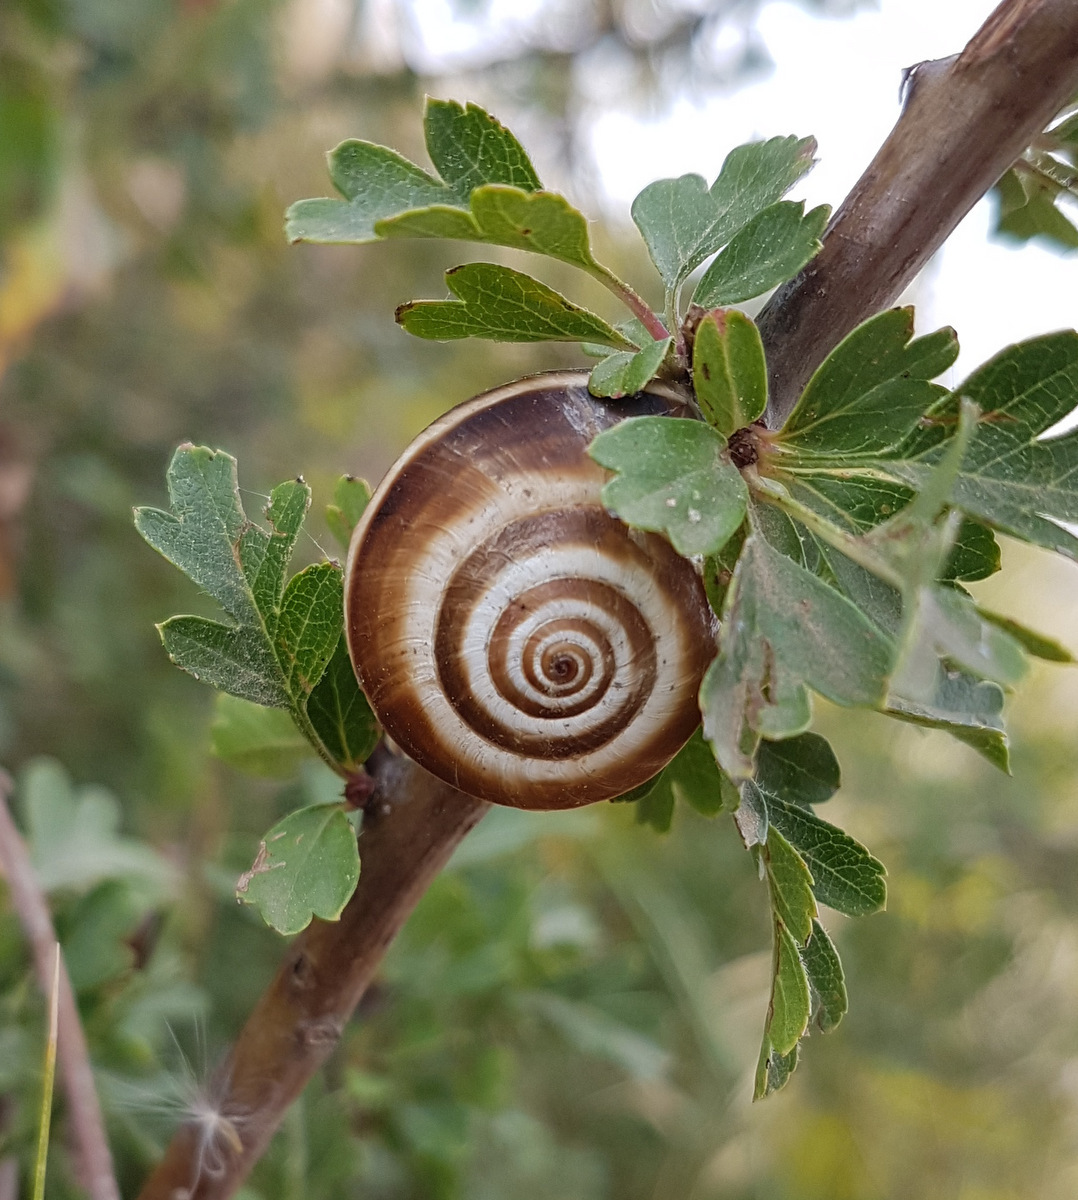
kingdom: Animalia
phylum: Mollusca
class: Gastropoda
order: Stylommatophora
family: Geomitridae
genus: Xerosecta
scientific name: Xerosecta arigonis
